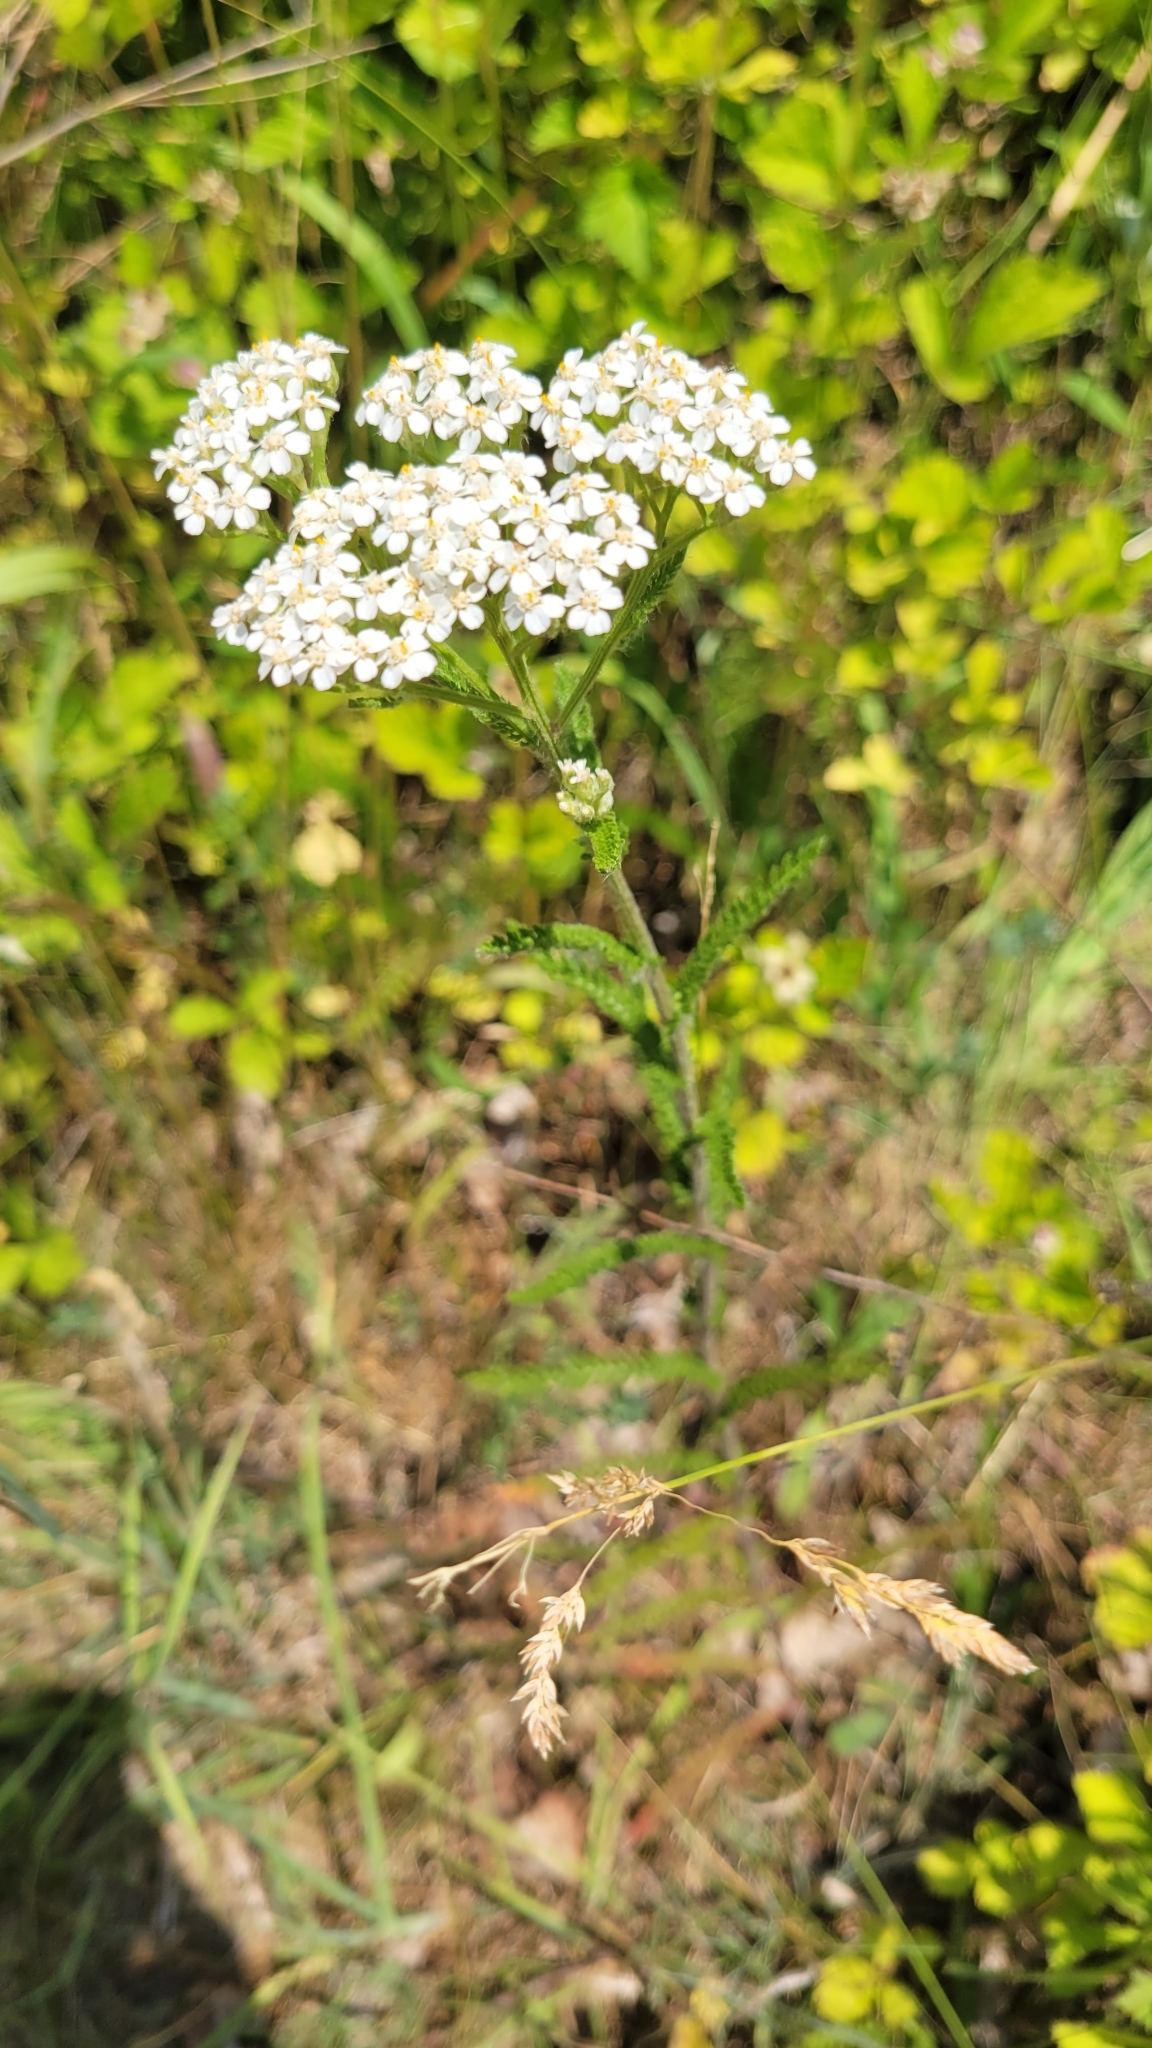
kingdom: Plantae
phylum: Tracheophyta
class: Magnoliopsida
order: Asterales
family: Asteraceae
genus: Achillea
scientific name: Achillea millefolium
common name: Yarrow
